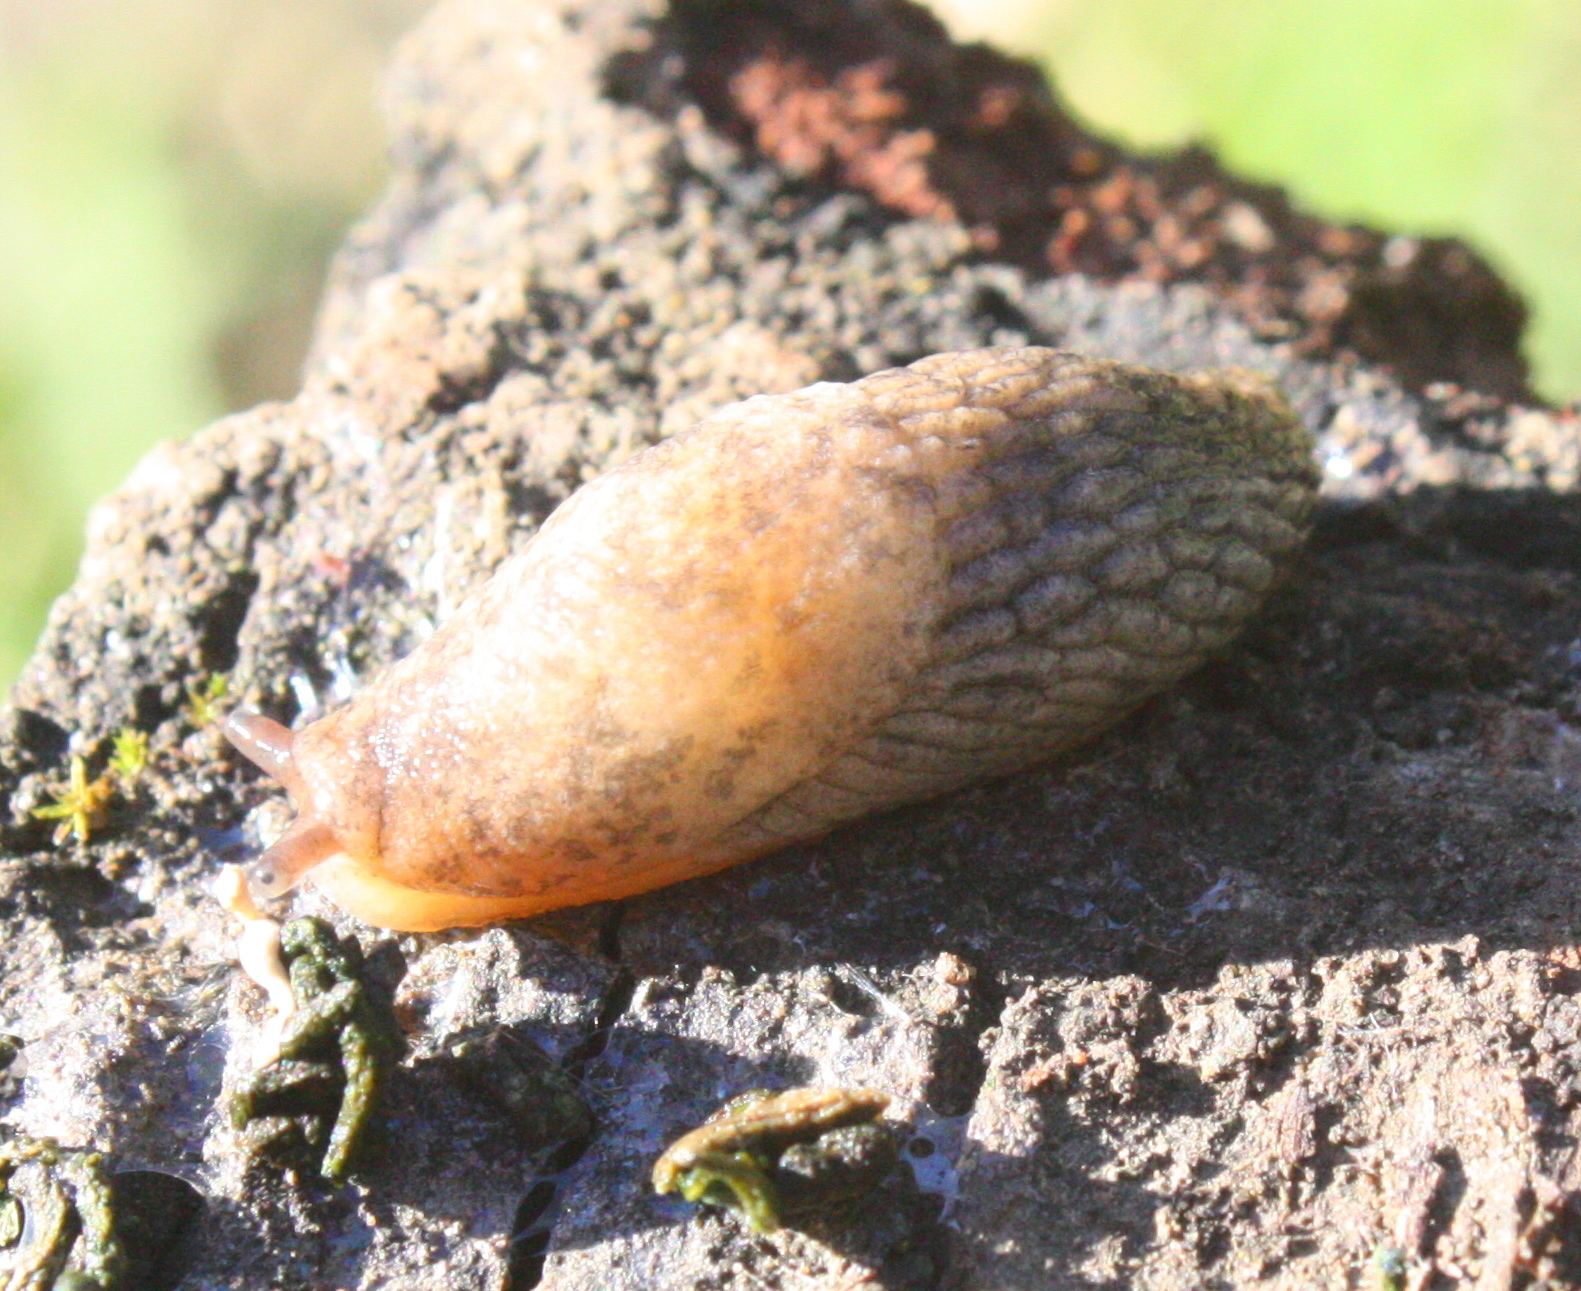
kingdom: Animalia
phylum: Mollusca
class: Gastropoda
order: Stylommatophora
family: Agriolimacidae
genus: Deroceras
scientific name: Deroceras reticulatum
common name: Gray field slug
